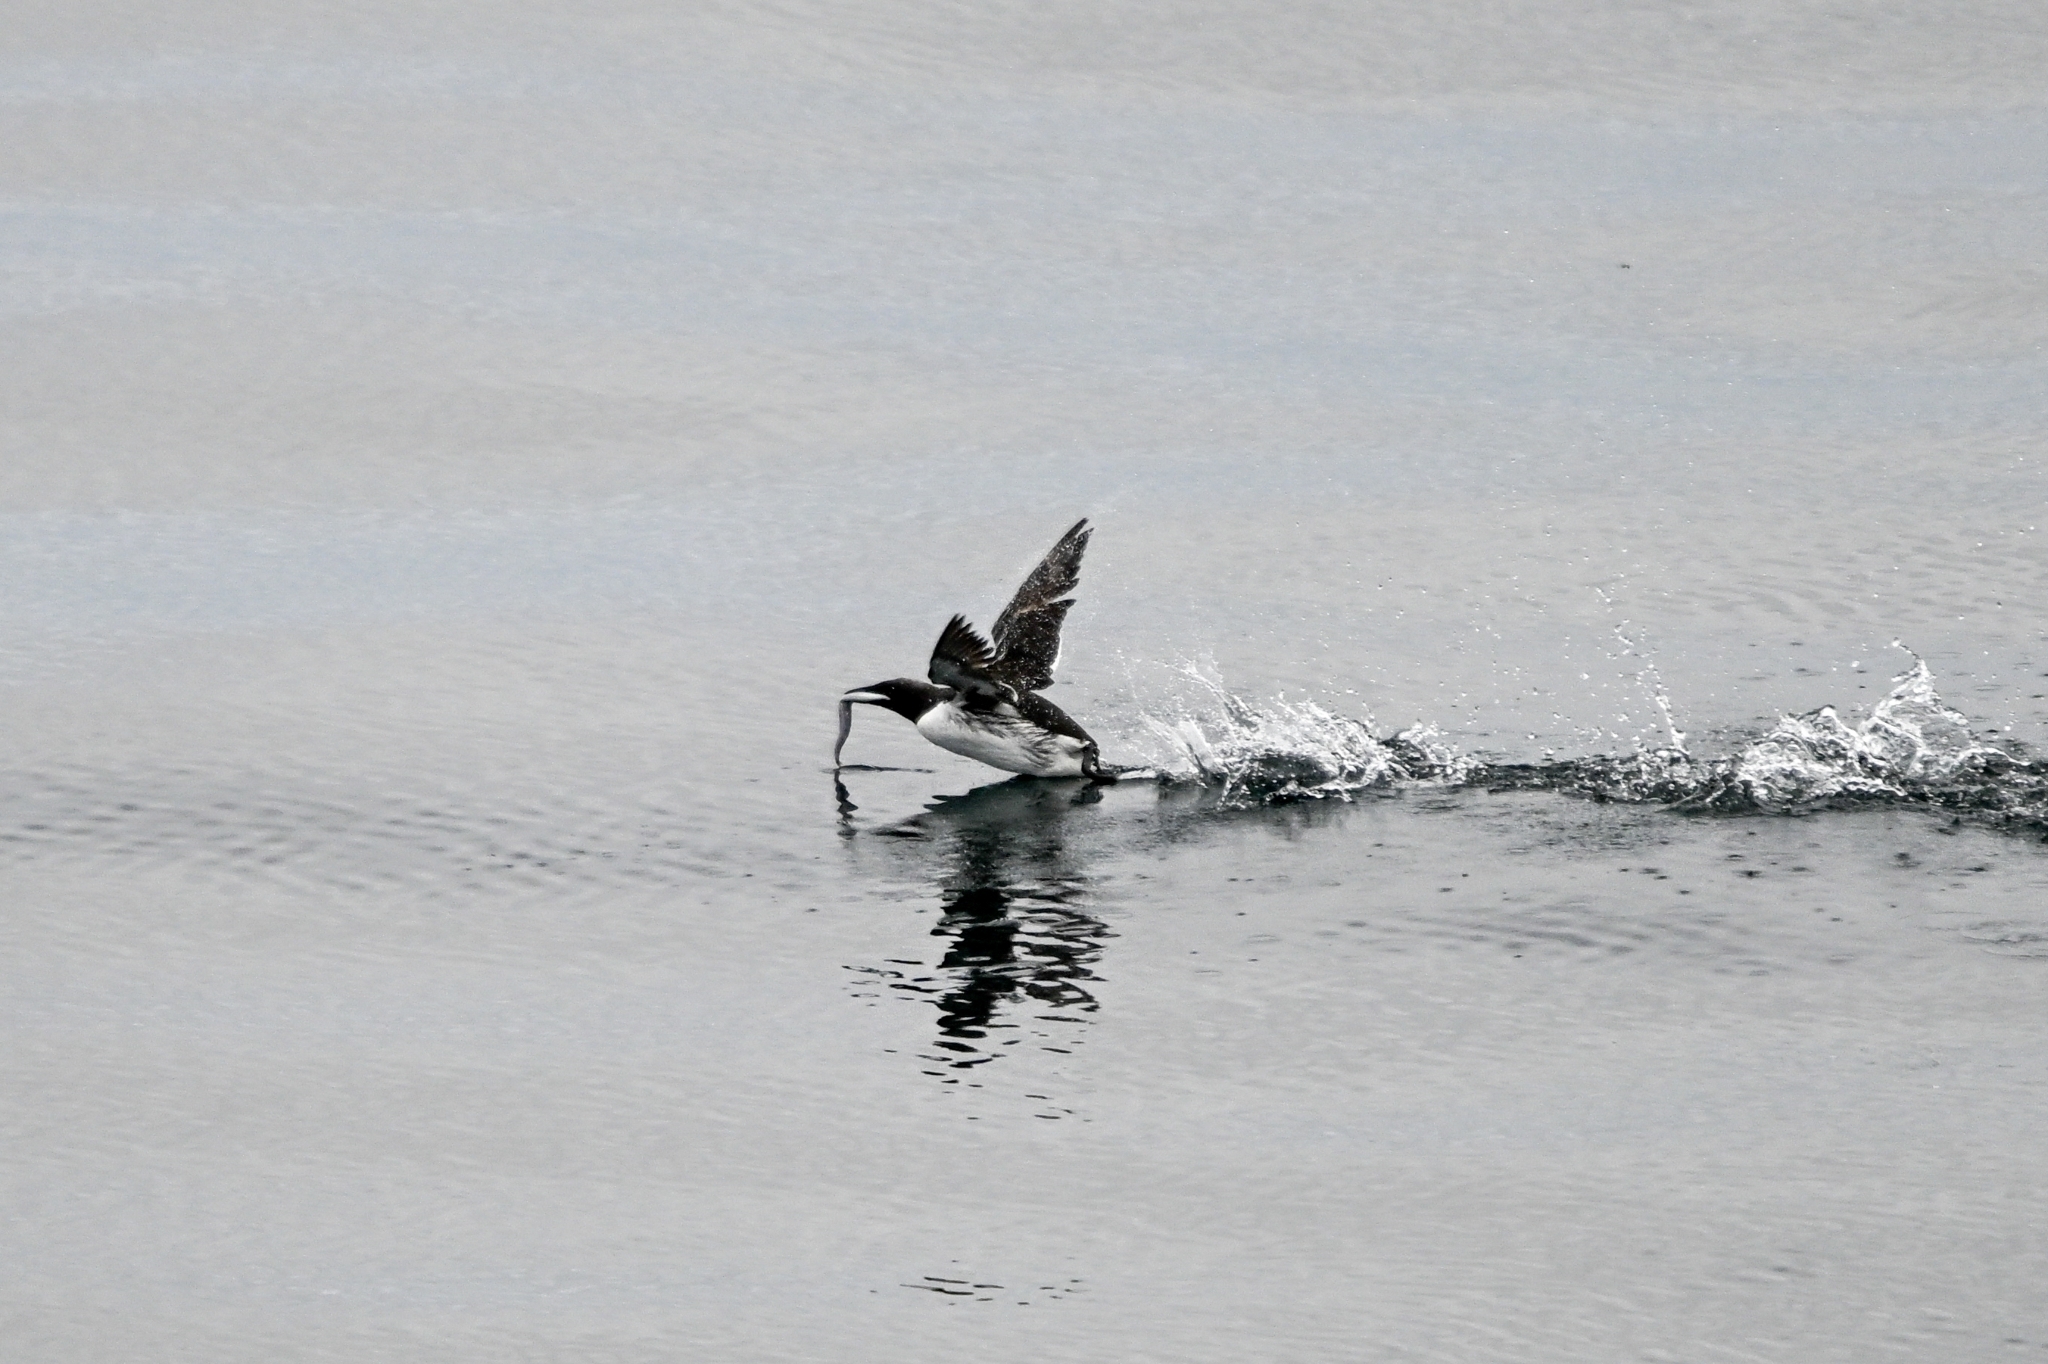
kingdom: Animalia
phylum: Chordata
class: Aves
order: Charadriiformes
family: Alcidae
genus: Uria
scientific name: Uria aalge
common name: Common murre
